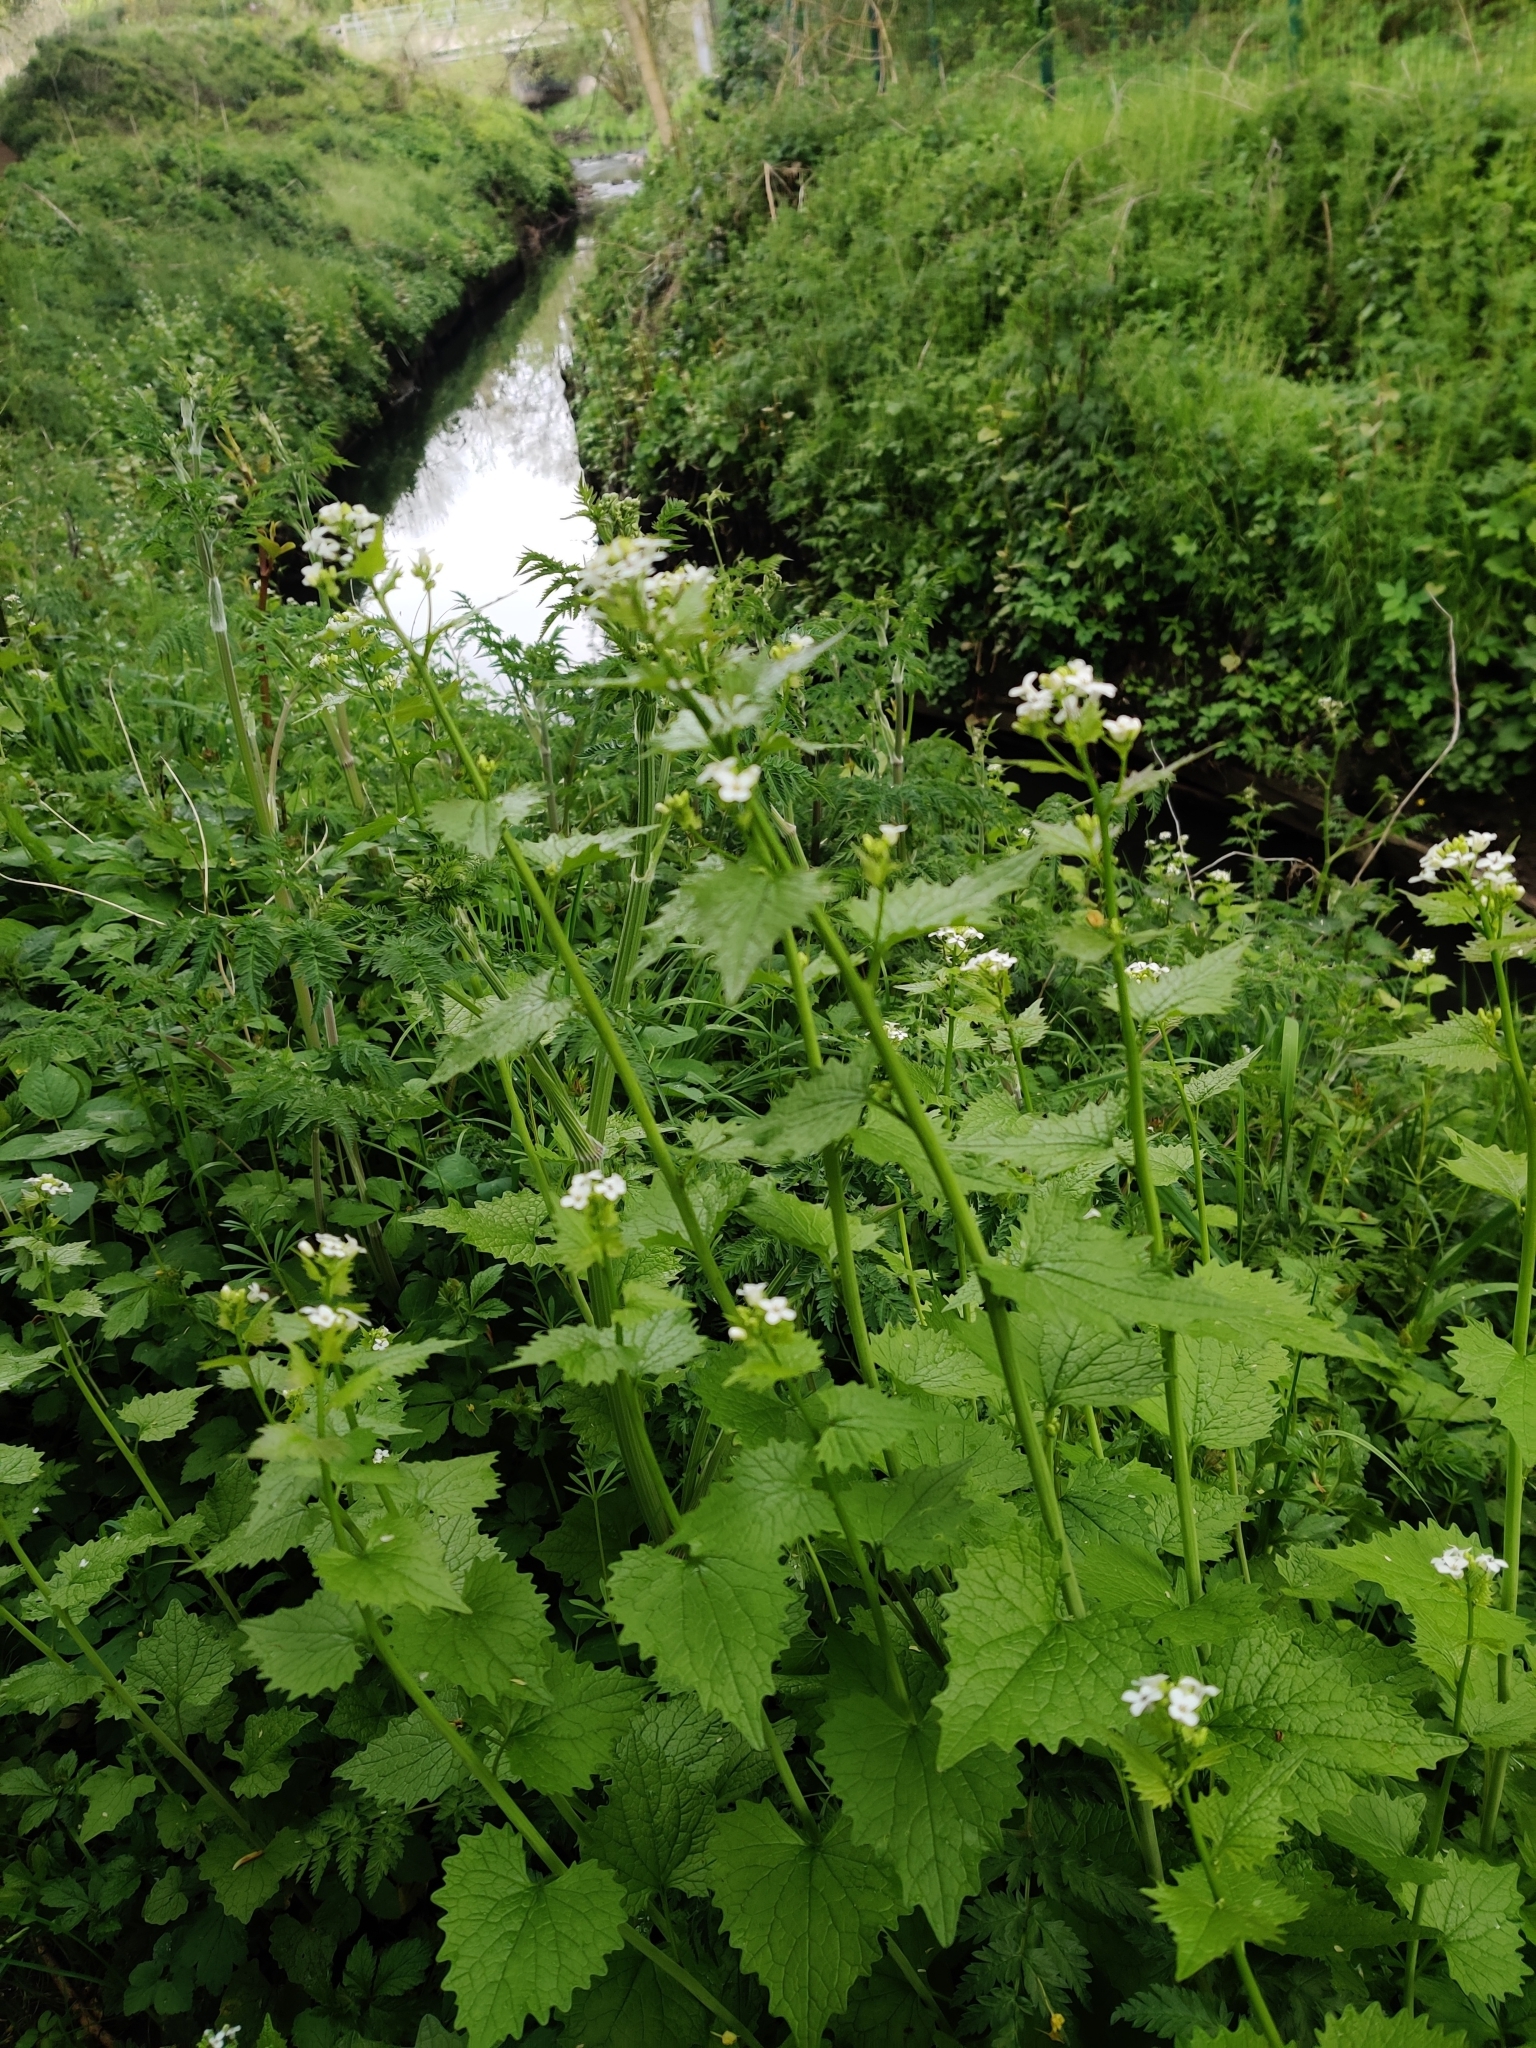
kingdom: Plantae
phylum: Tracheophyta
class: Magnoliopsida
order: Brassicales
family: Brassicaceae
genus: Alliaria
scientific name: Alliaria petiolata
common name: Garlic mustard
